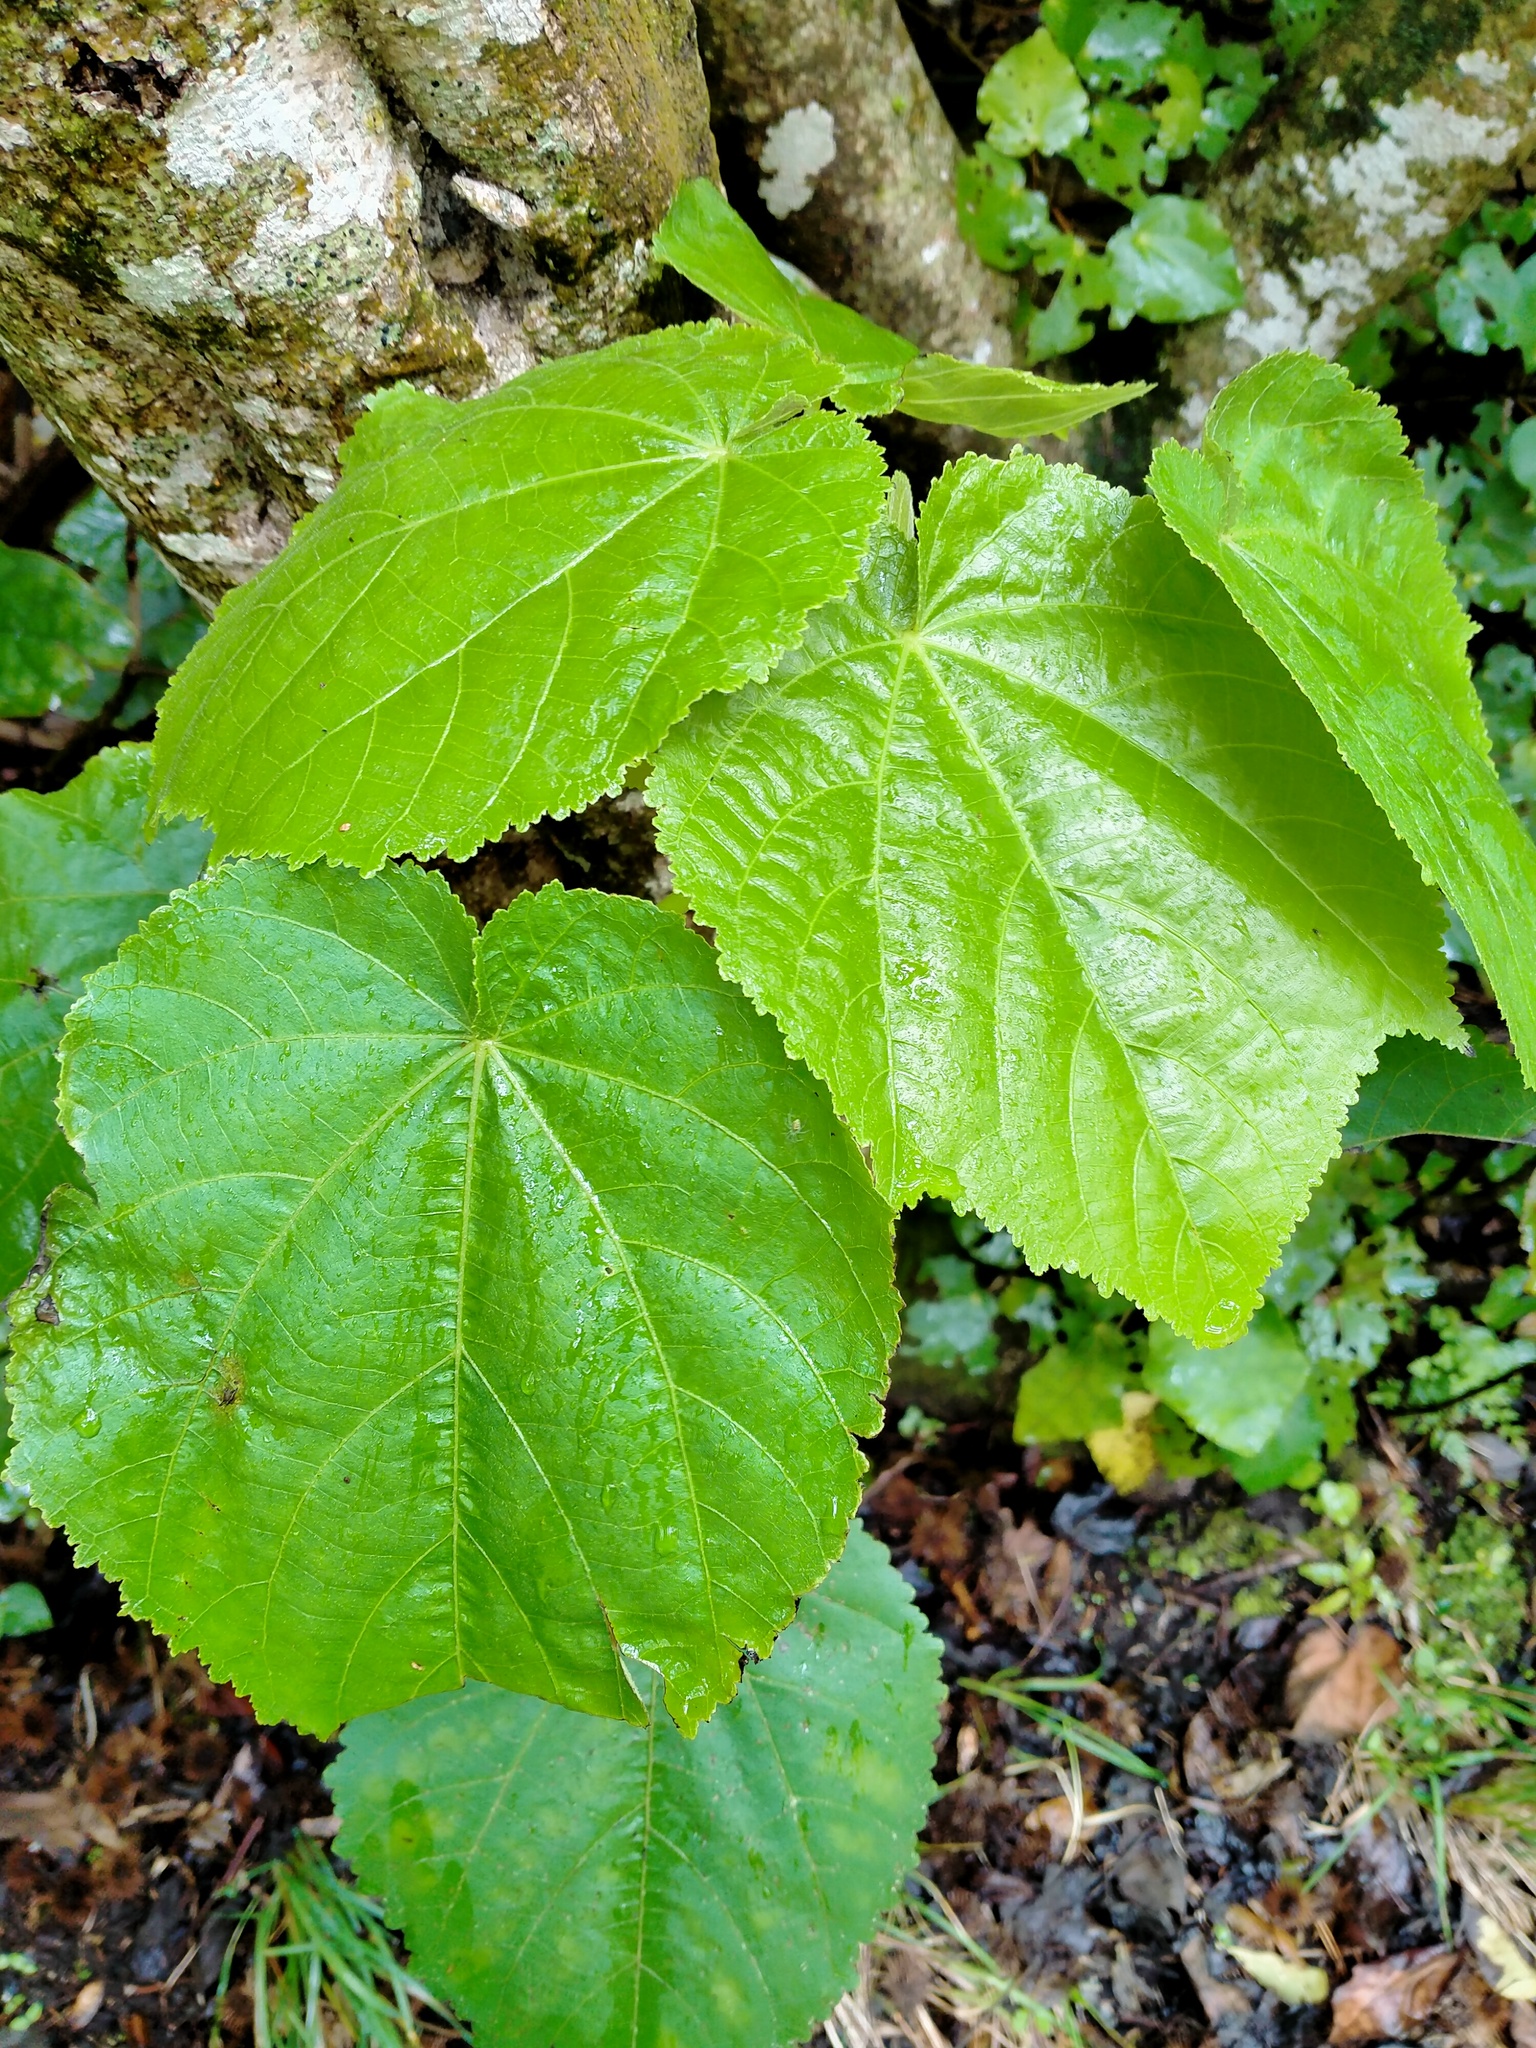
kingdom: Plantae
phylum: Tracheophyta
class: Magnoliopsida
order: Malvales
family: Malvaceae
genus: Entelea
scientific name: Entelea arborescens
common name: New zealand-mulberry
